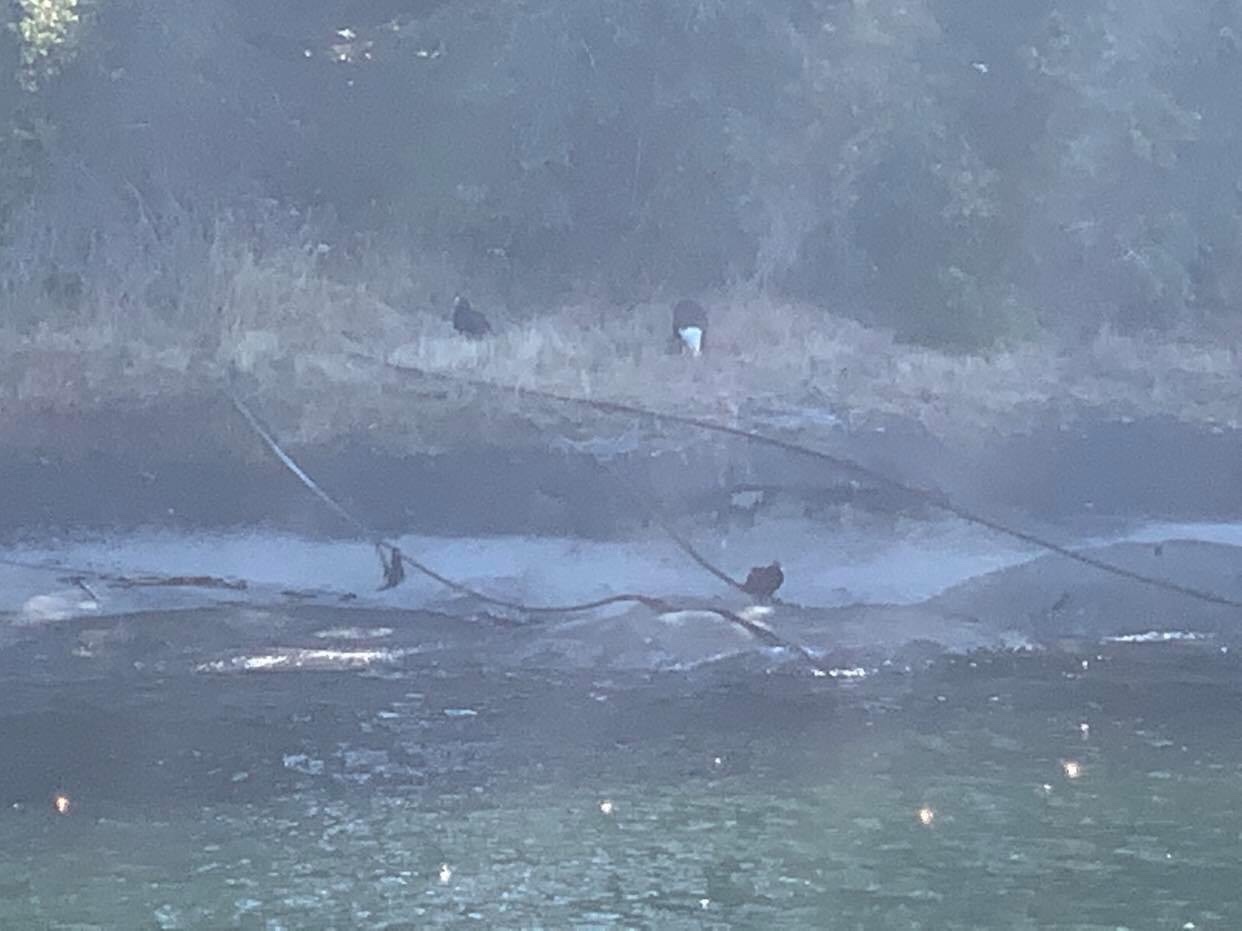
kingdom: Animalia
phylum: Chordata
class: Aves
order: Accipitriformes
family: Cathartidae
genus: Cathartes
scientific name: Cathartes aura
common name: Turkey vulture
